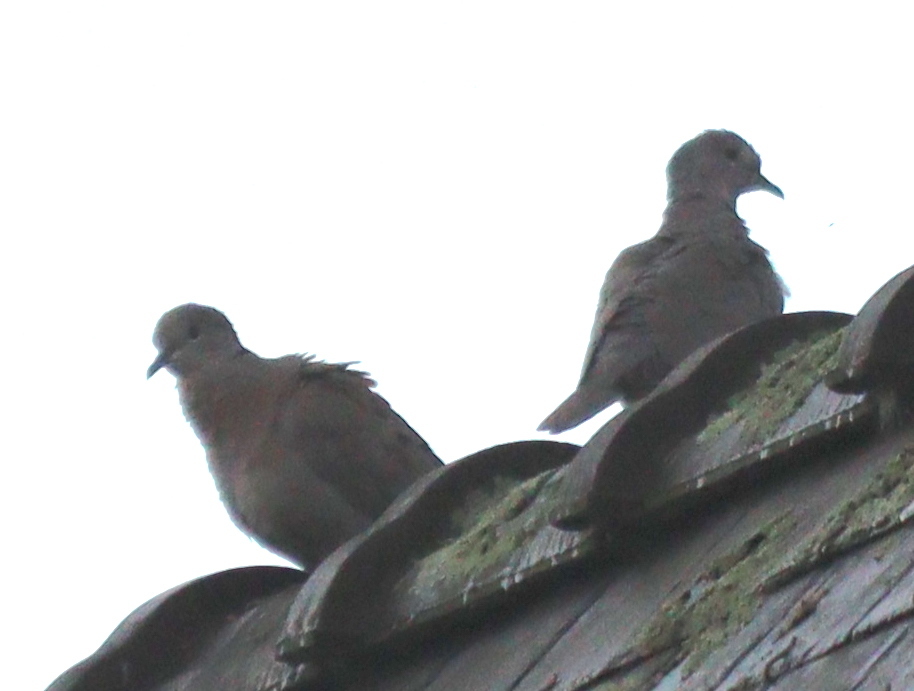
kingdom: Animalia
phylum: Chordata
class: Aves
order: Columbiformes
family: Columbidae
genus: Streptopelia
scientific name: Streptopelia decaocto
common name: Eurasian collared dove
